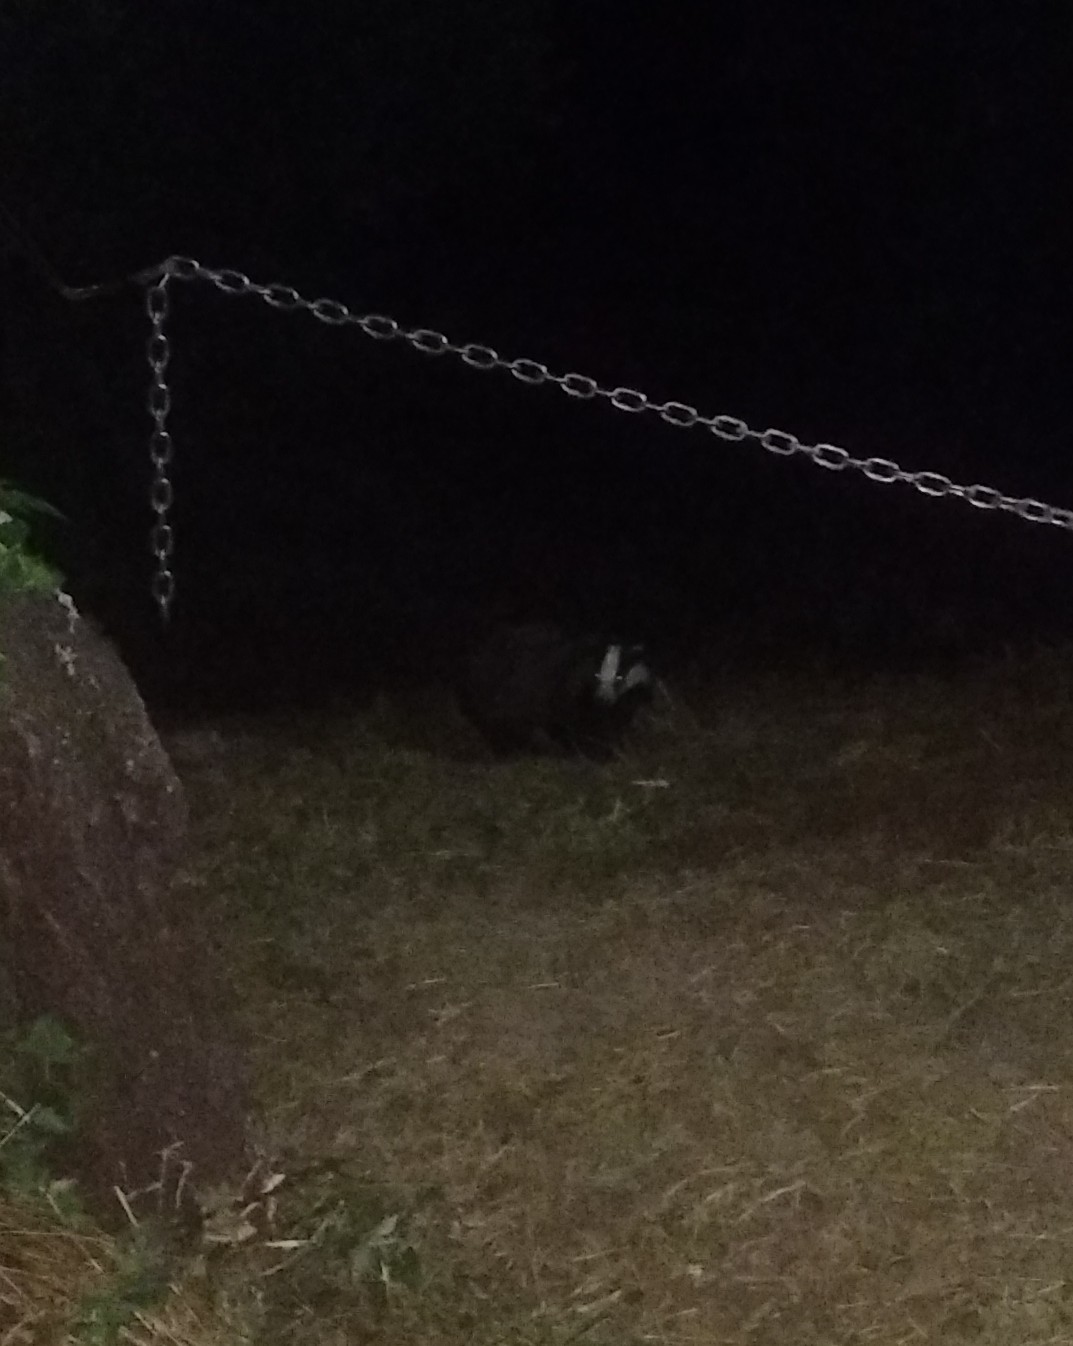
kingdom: Animalia
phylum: Chordata
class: Mammalia
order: Carnivora
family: Mustelidae
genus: Meles
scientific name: Meles meles
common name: Eurasian badger
